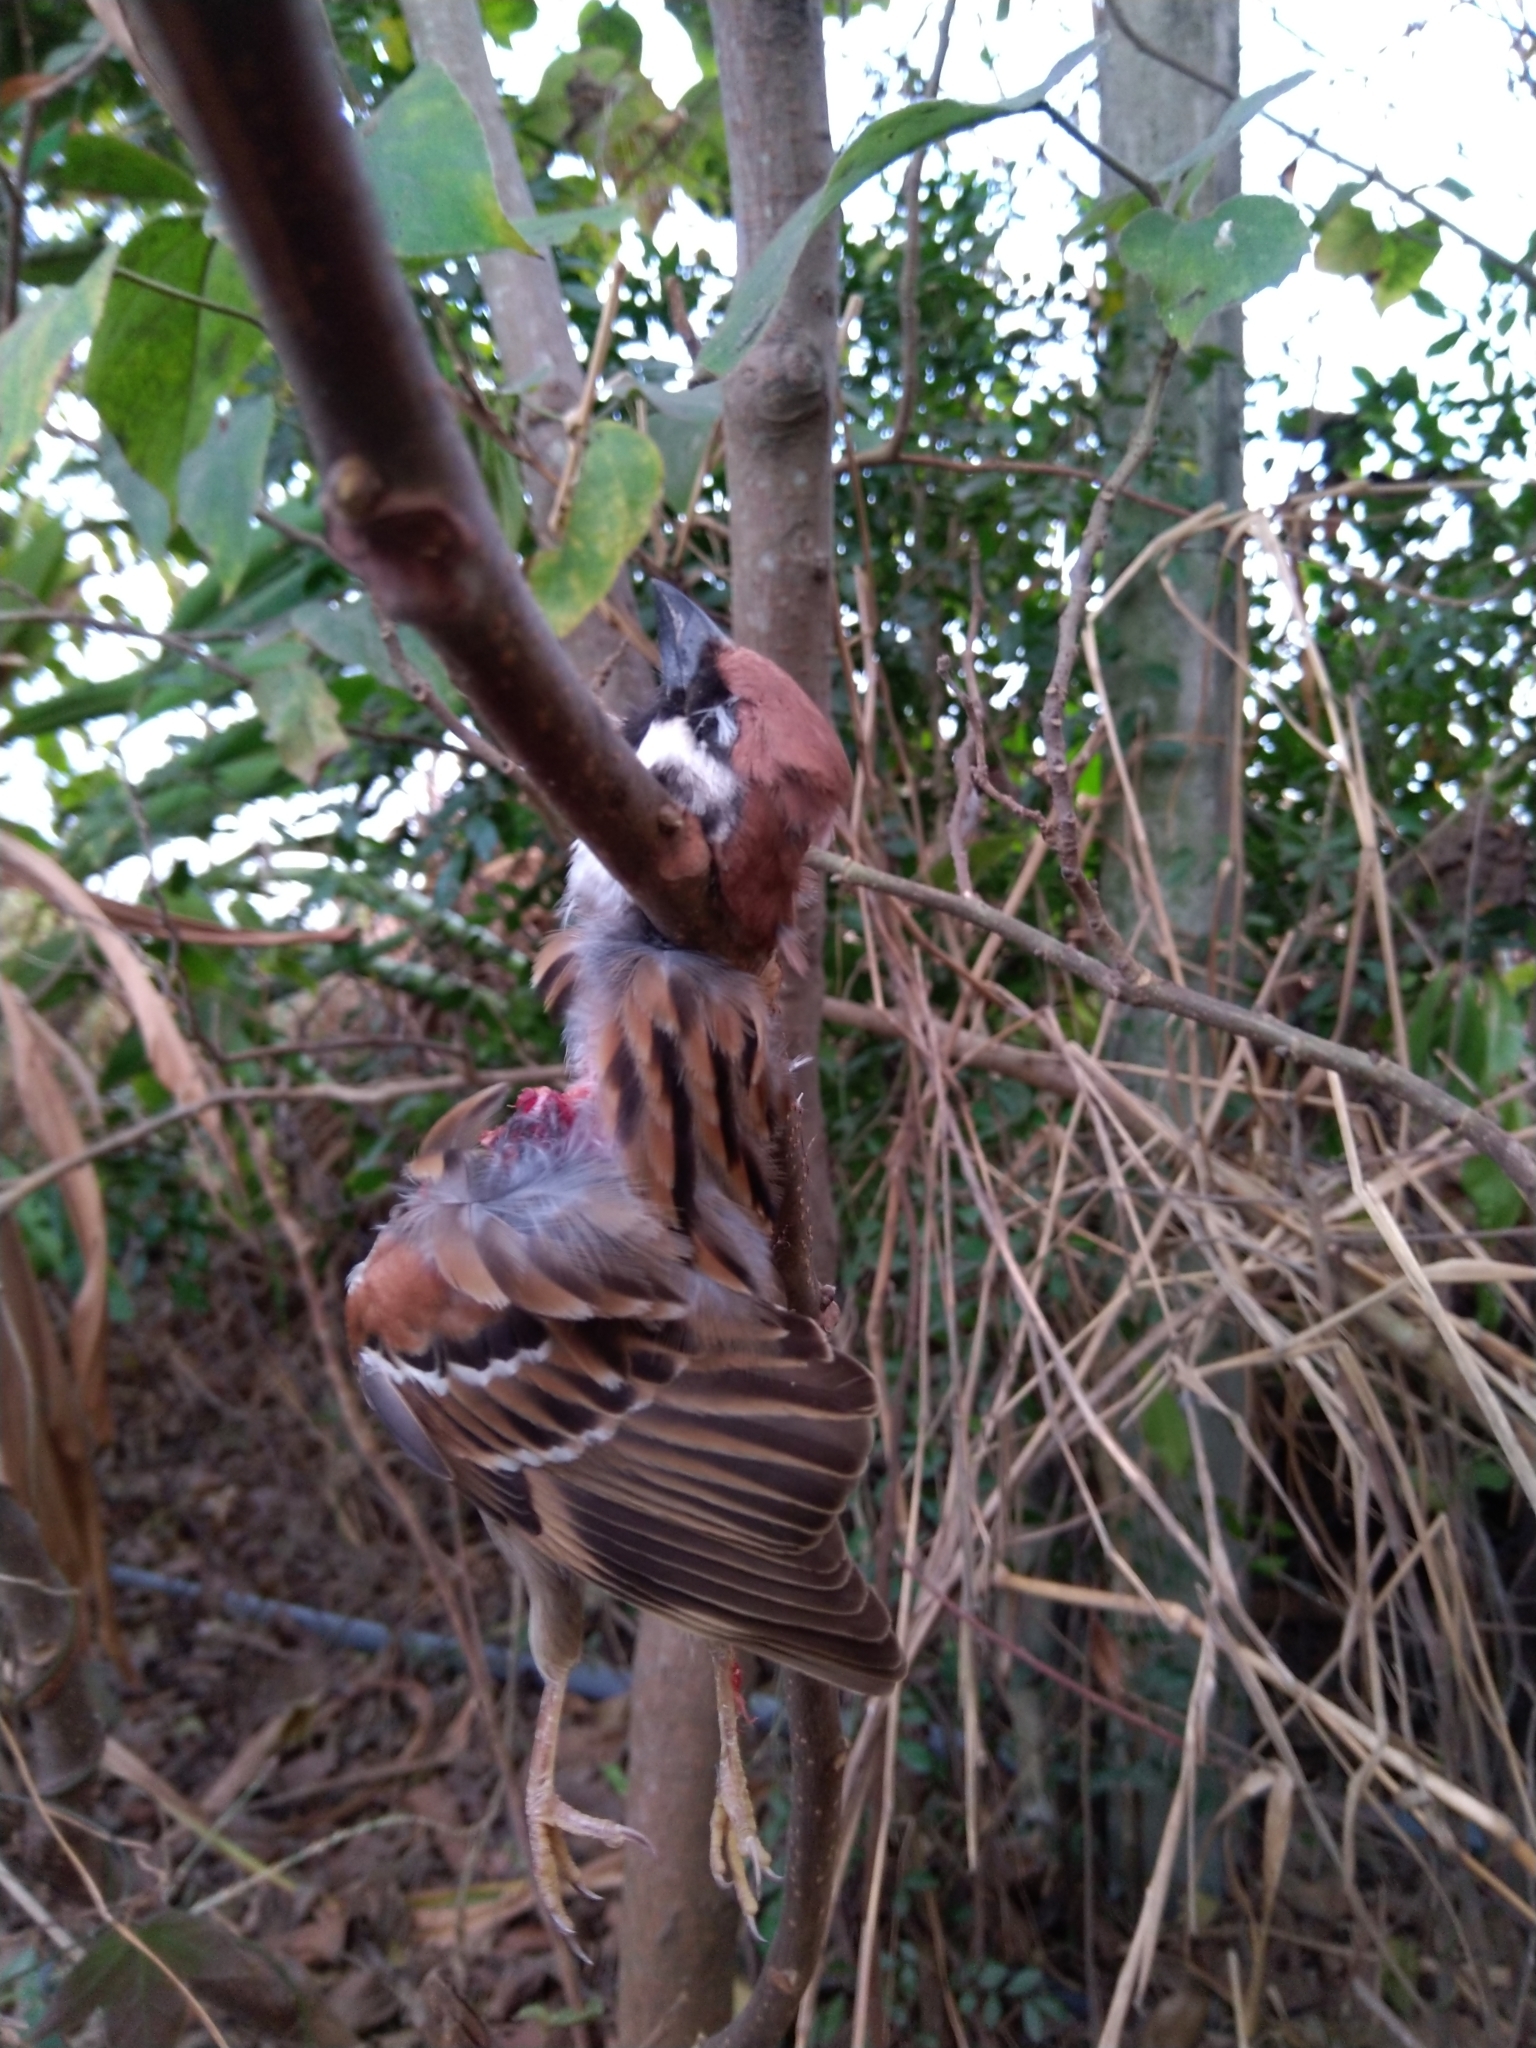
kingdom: Animalia
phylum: Chordata
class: Aves
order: Passeriformes
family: Passeridae
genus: Passer
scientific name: Passer montanus
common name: Eurasian tree sparrow
